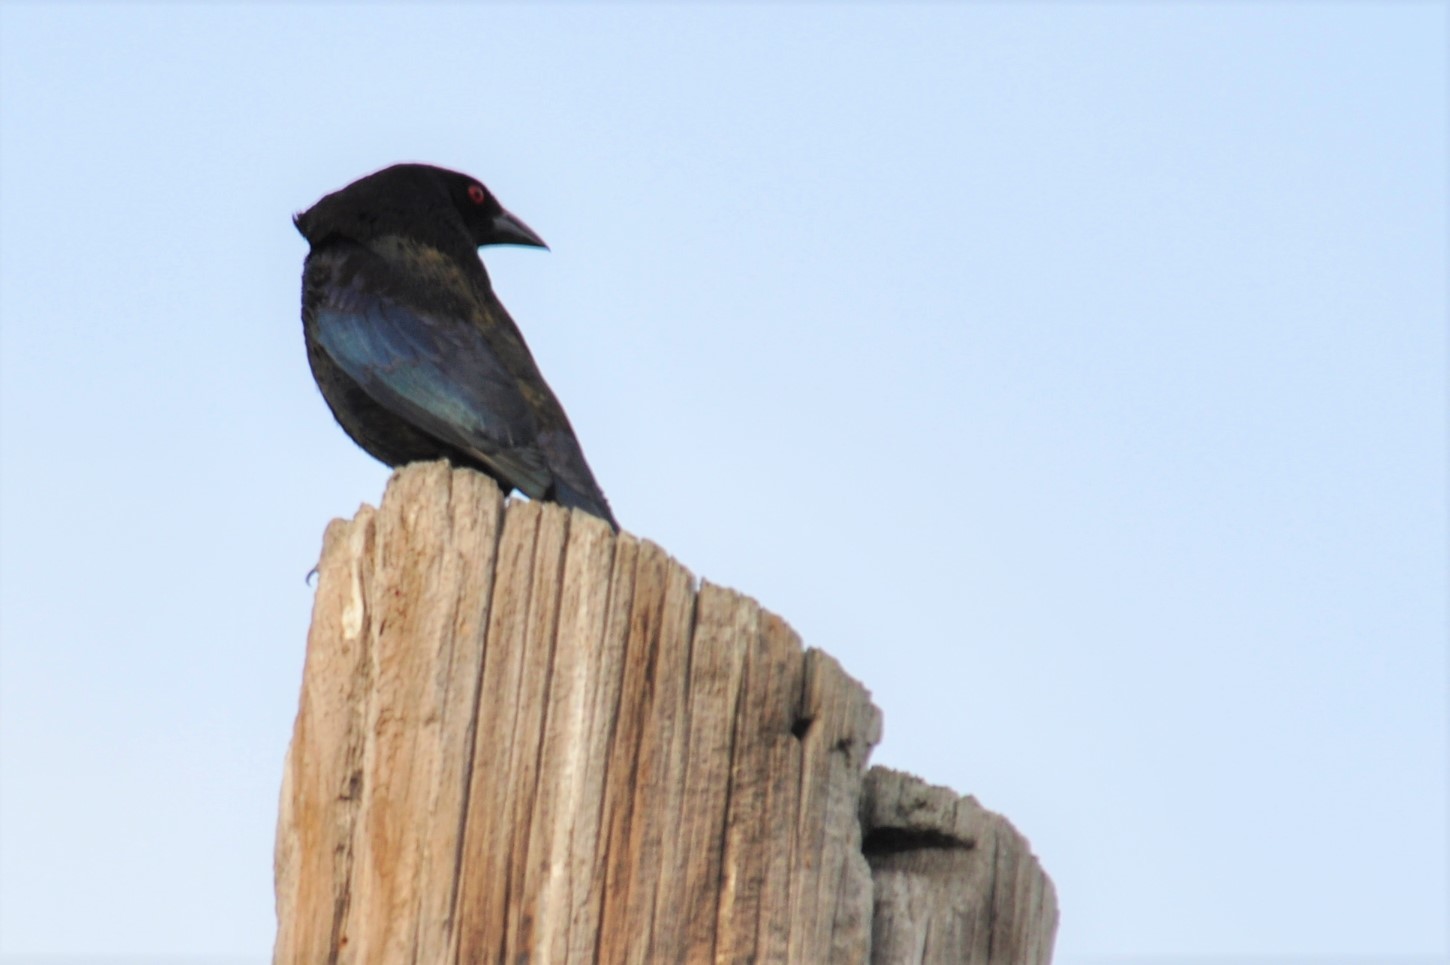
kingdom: Animalia
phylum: Chordata
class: Aves
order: Passeriformes
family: Icteridae
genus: Molothrus
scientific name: Molothrus aeneus
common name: Bronzed cowbird
